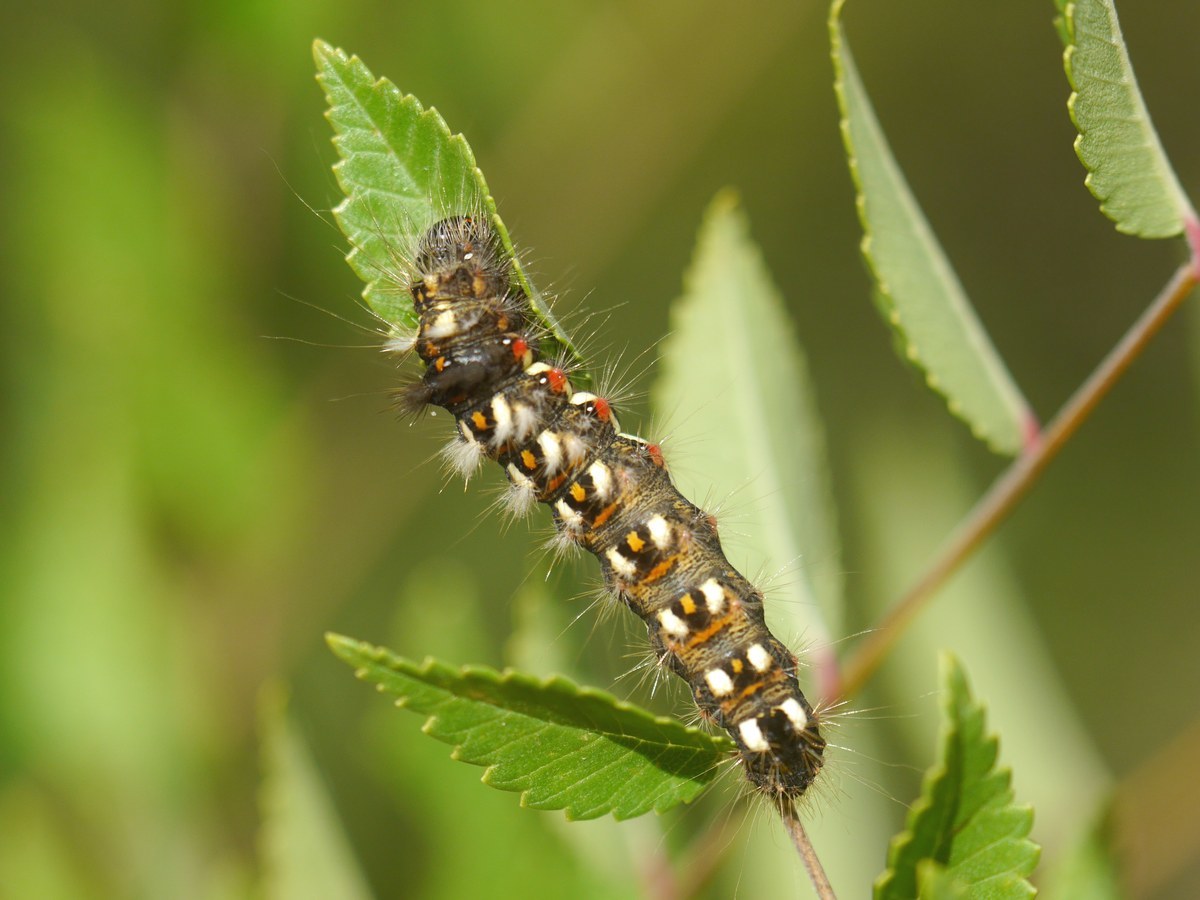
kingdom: Animalia
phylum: Arthropoda
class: Insecta
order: Lepidoptera
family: Noctuidae
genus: Acronicta
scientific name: Acronicta rumicis
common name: Knot grass
